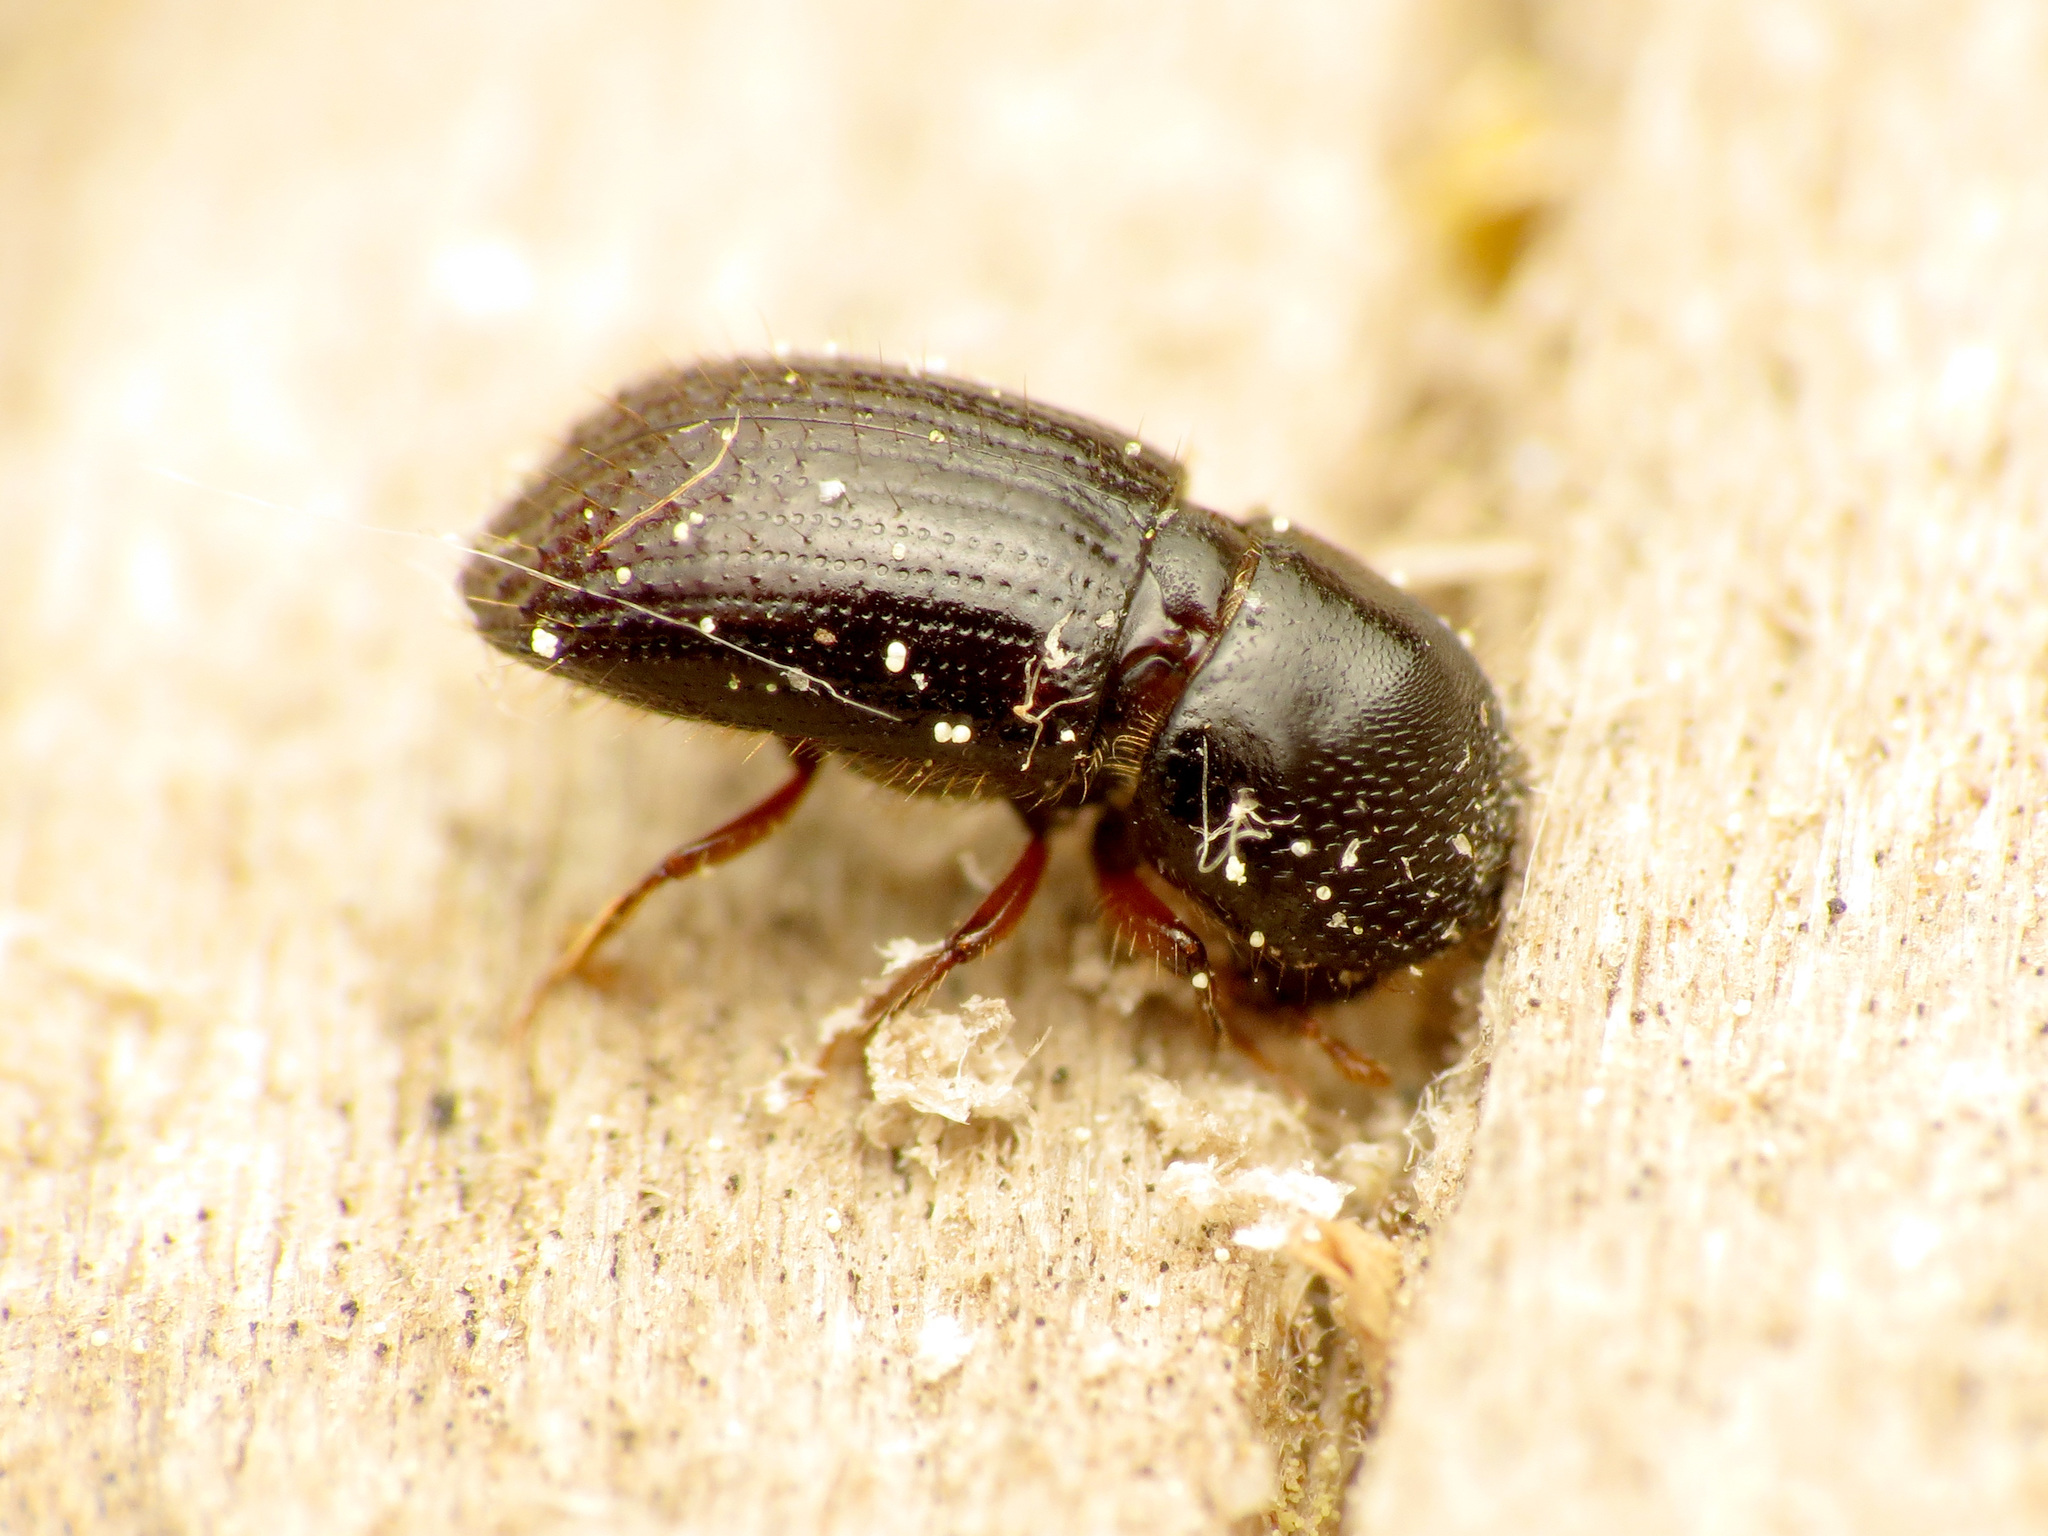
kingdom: Animalia
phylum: Arthropoda
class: Insecta
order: Coleoptera
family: Curculionidae
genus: Euwallacea
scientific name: Euwallacea validus
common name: Bark beetle
